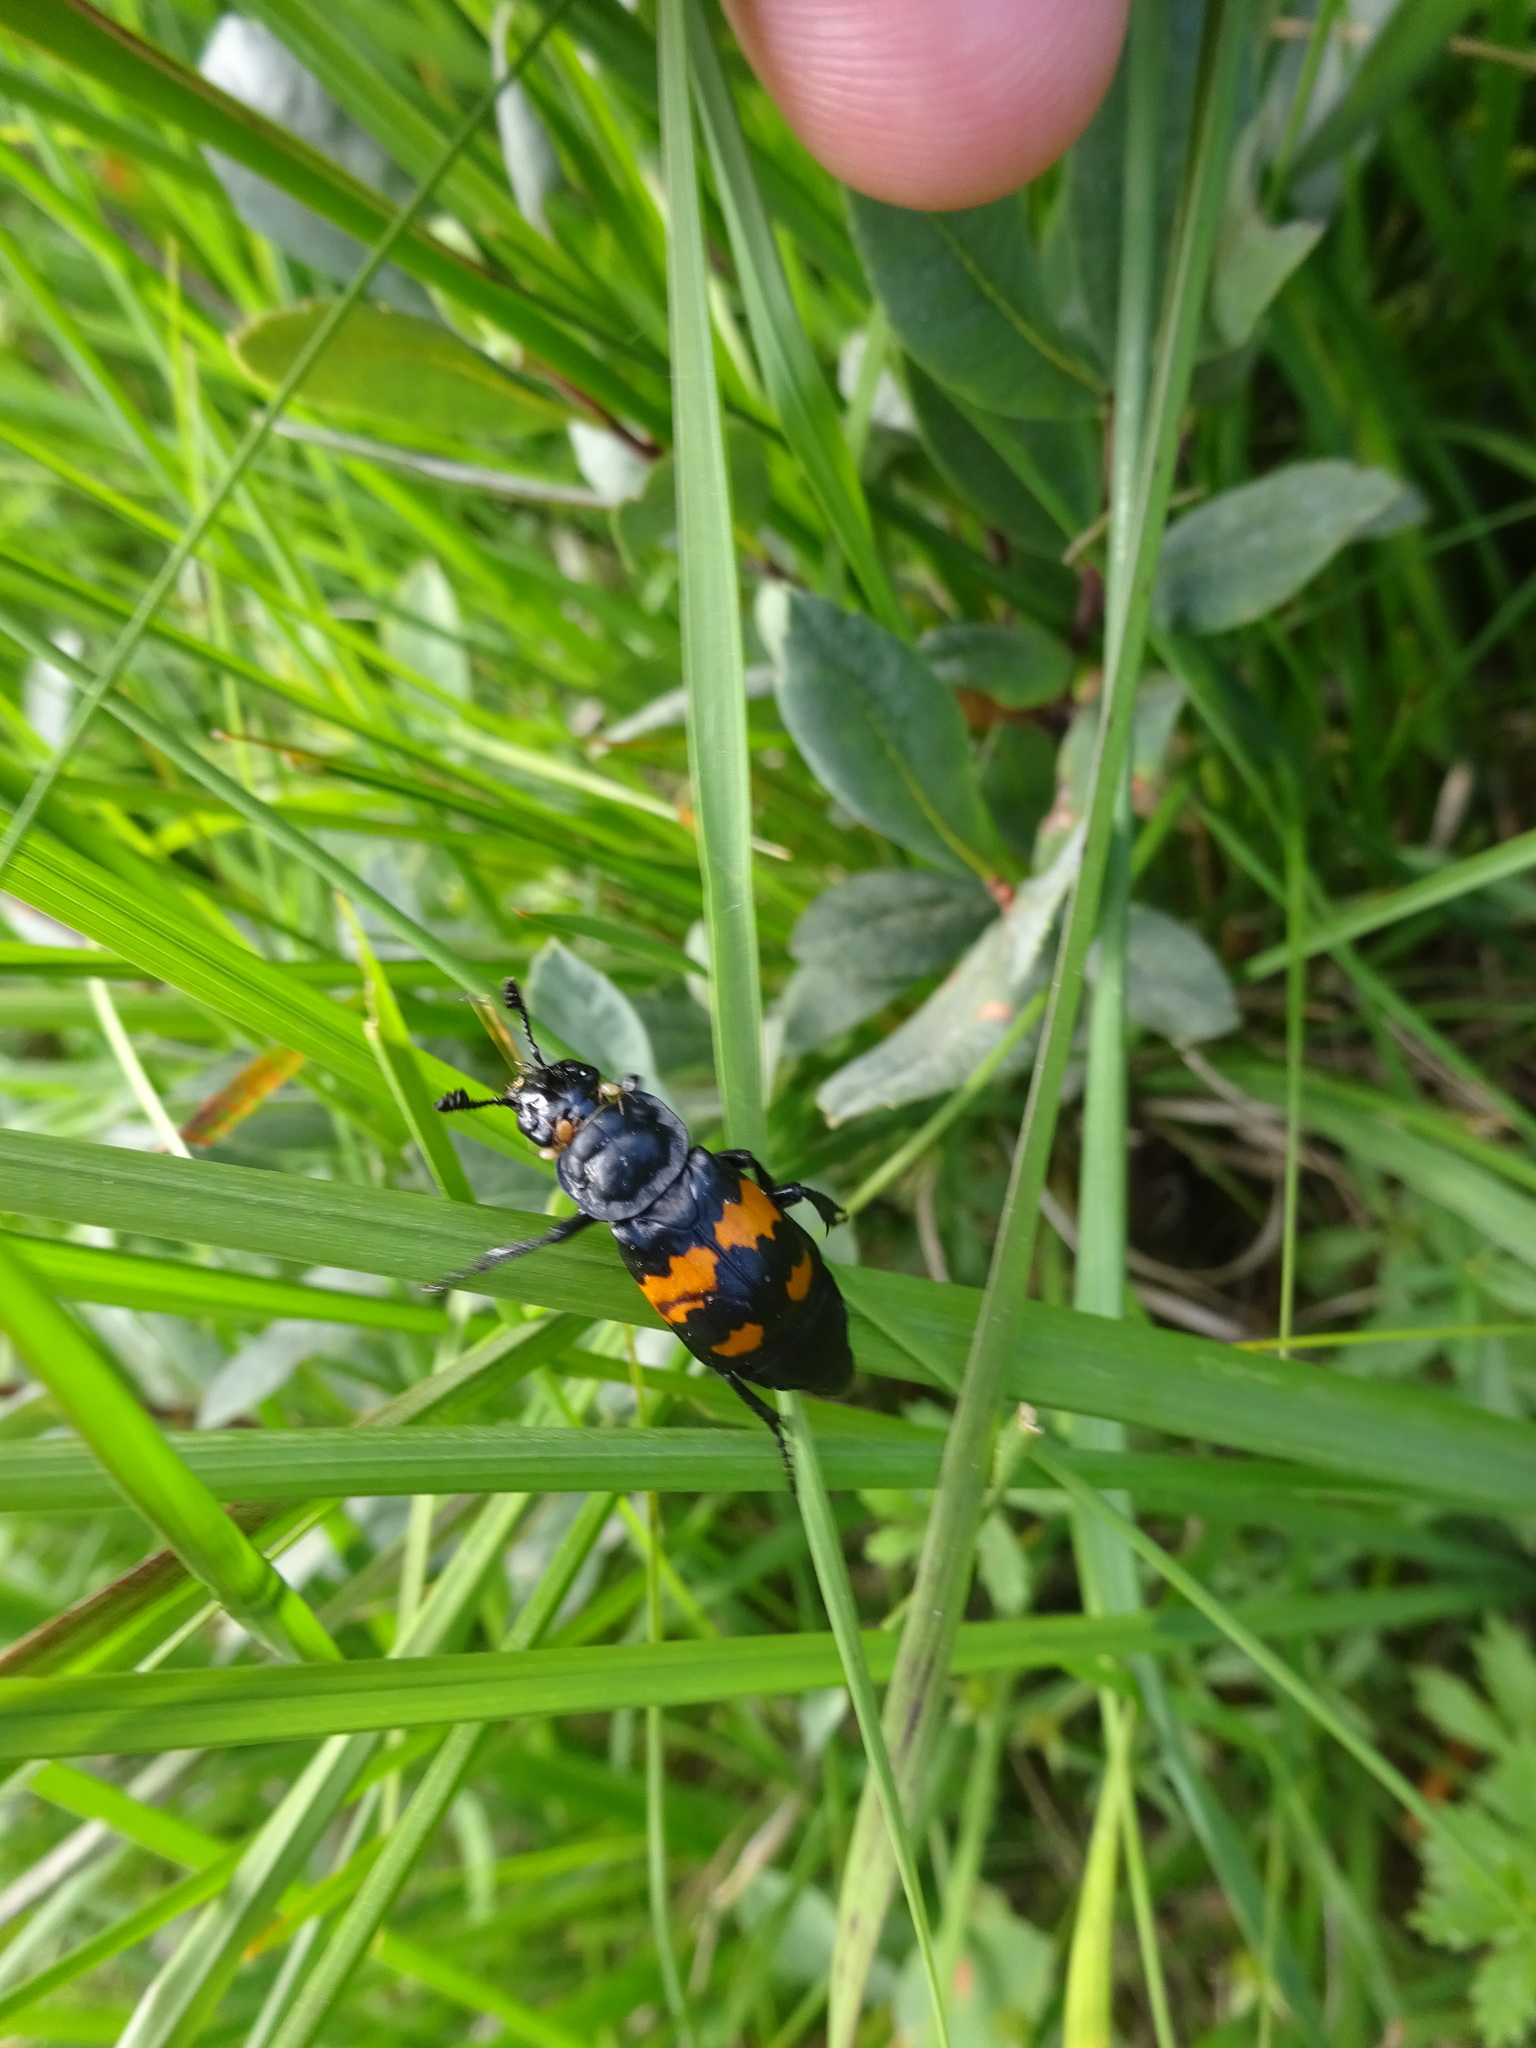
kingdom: Animalia
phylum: Arthropoda
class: Insecta
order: Coleoptera
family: Staphylinidae
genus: Nicrophorus
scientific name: Nicrophorus vespilloides
